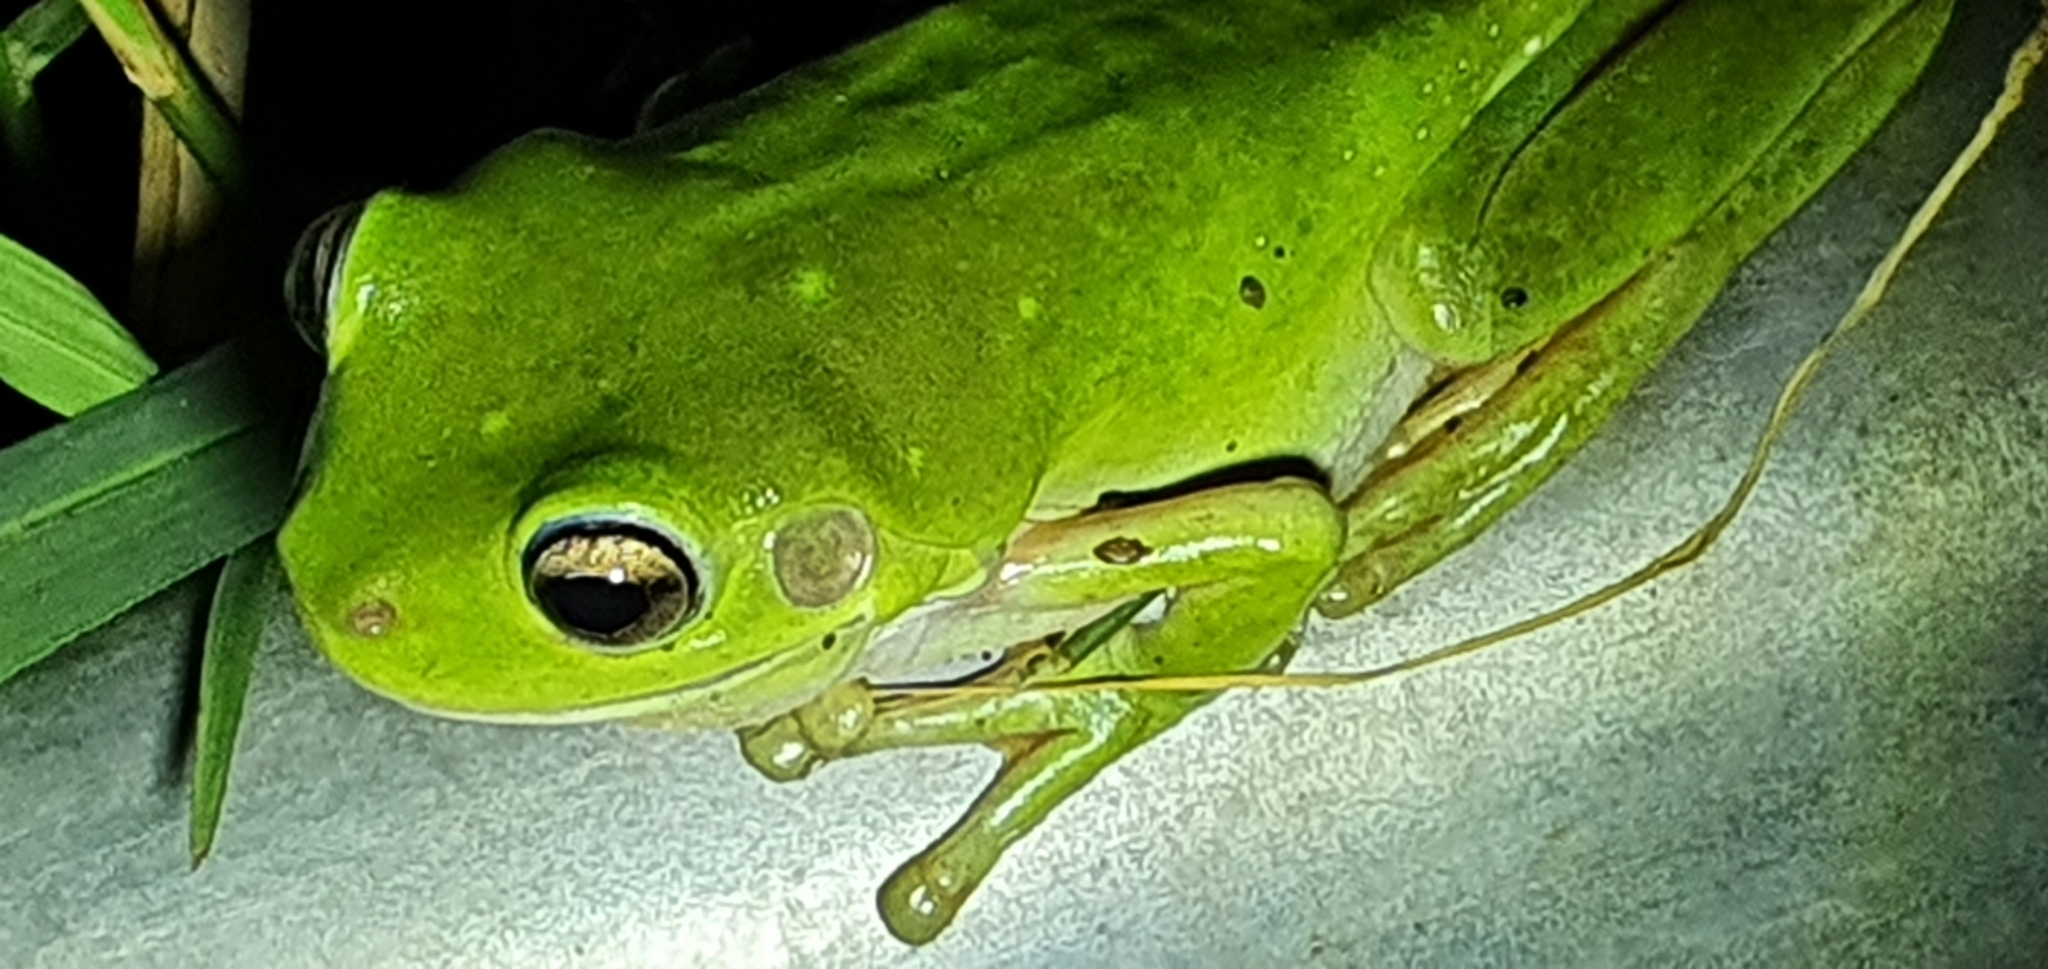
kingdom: Animalia
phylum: Chordata
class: Amphibia
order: Anura
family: Pelodryadidae
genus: Ranoidea
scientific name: Ranoidea caerulea
